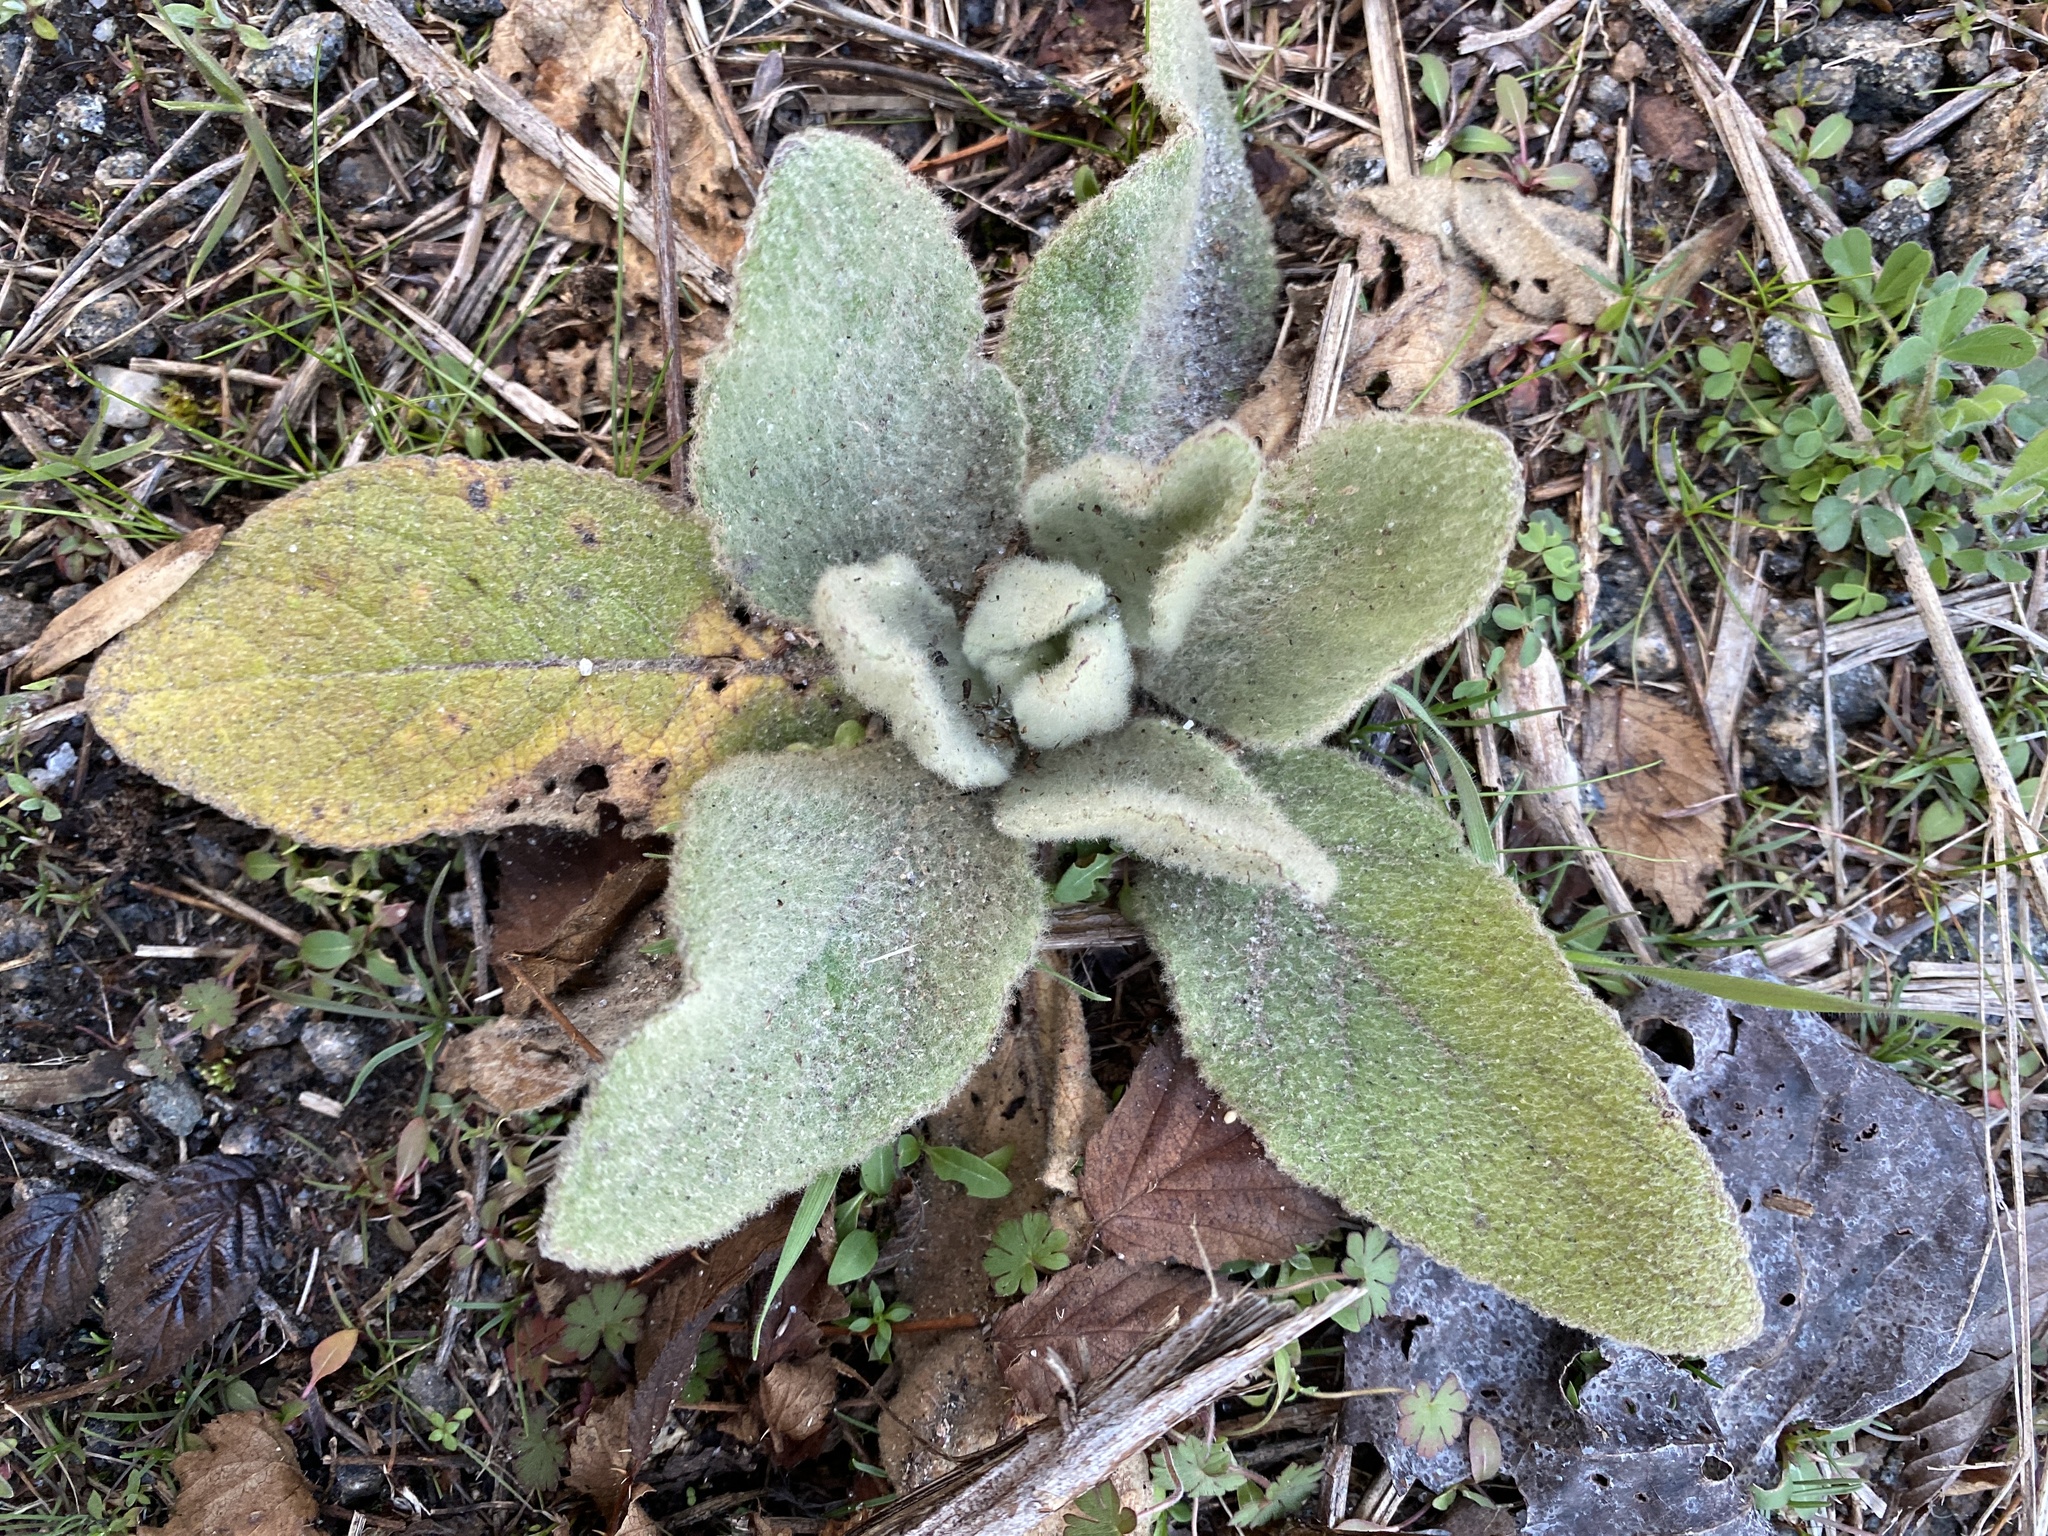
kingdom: Plantae
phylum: Tracheophyta
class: Magnoliopsida
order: Lamiales
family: Scrophulariaceae
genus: Verbascum
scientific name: Verbascum thapsus
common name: Common mullein
